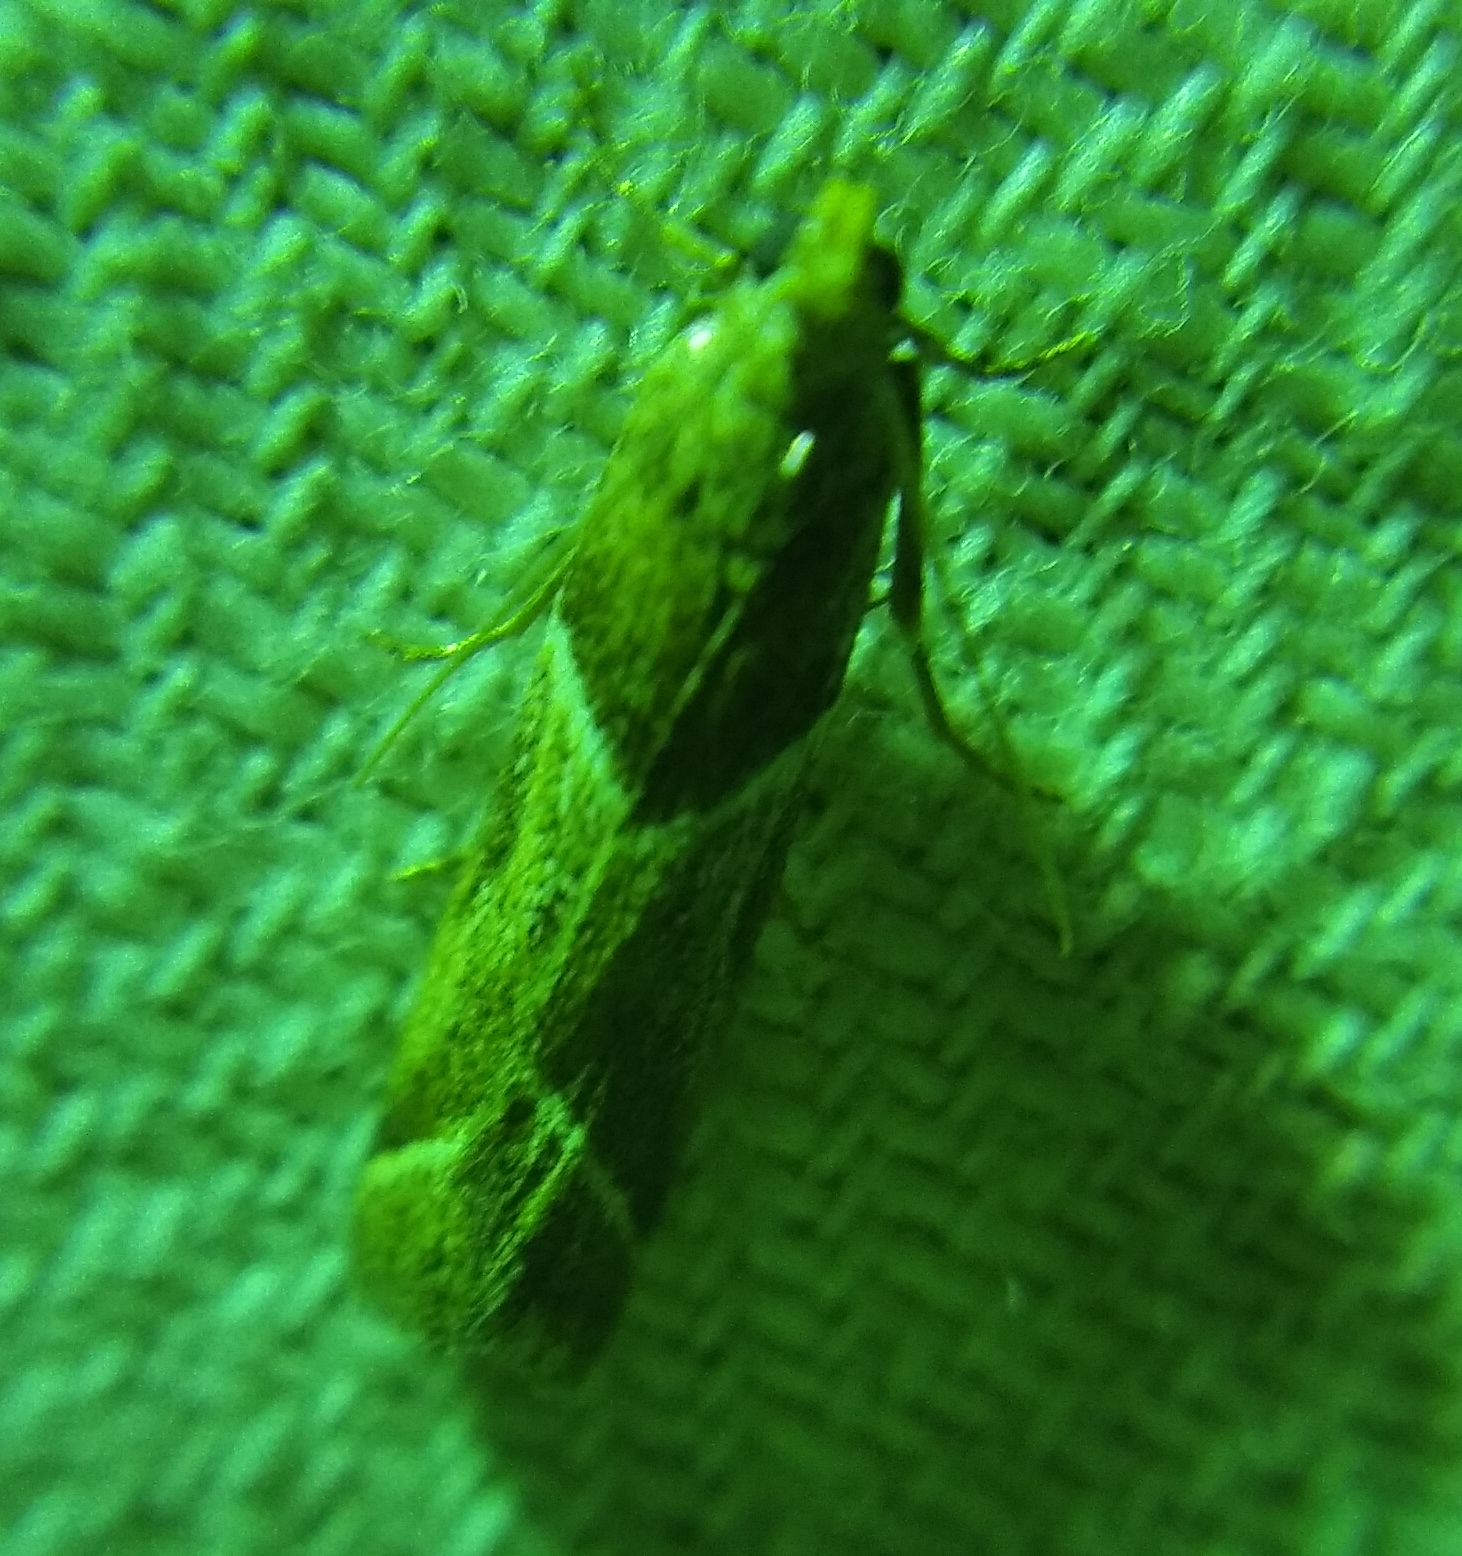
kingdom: Animalia
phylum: Arthropoda
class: Insecta
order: Lepidoptera
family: Pyralidae
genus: Nyctegretis
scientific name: Nyctegretis lineana
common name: Agate knot-horn
